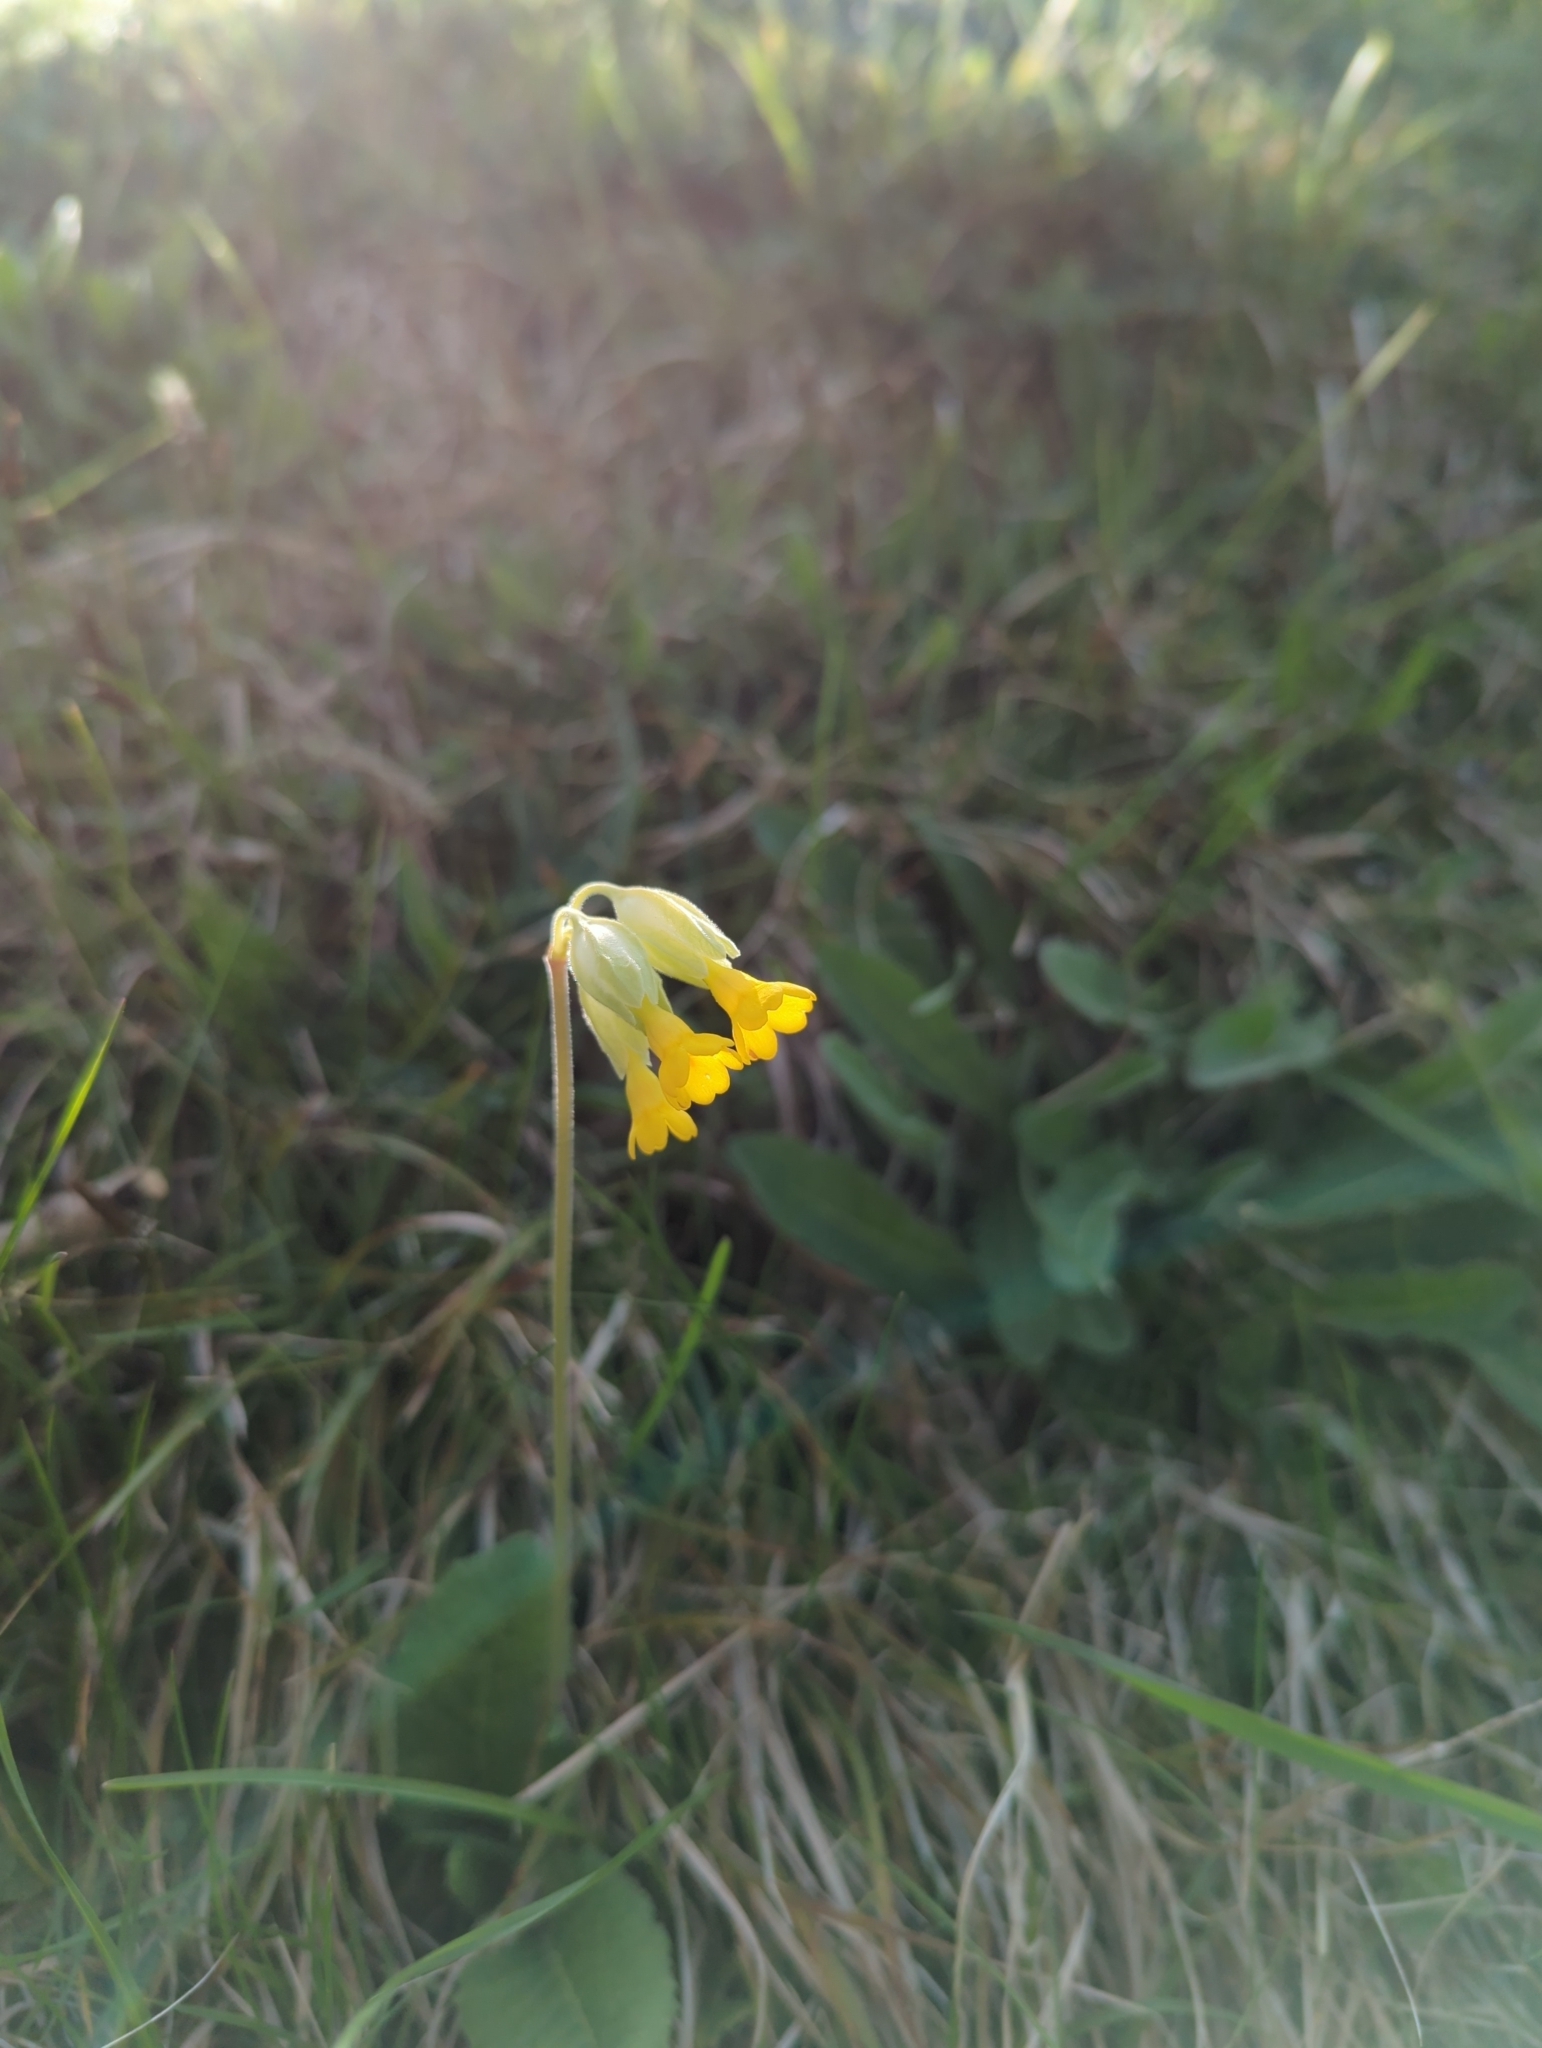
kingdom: Plantae
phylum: Tracheophyta
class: Magnoliopsida
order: Ericales
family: Primulaceae
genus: Primula
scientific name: Primula veris
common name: Cowslip
